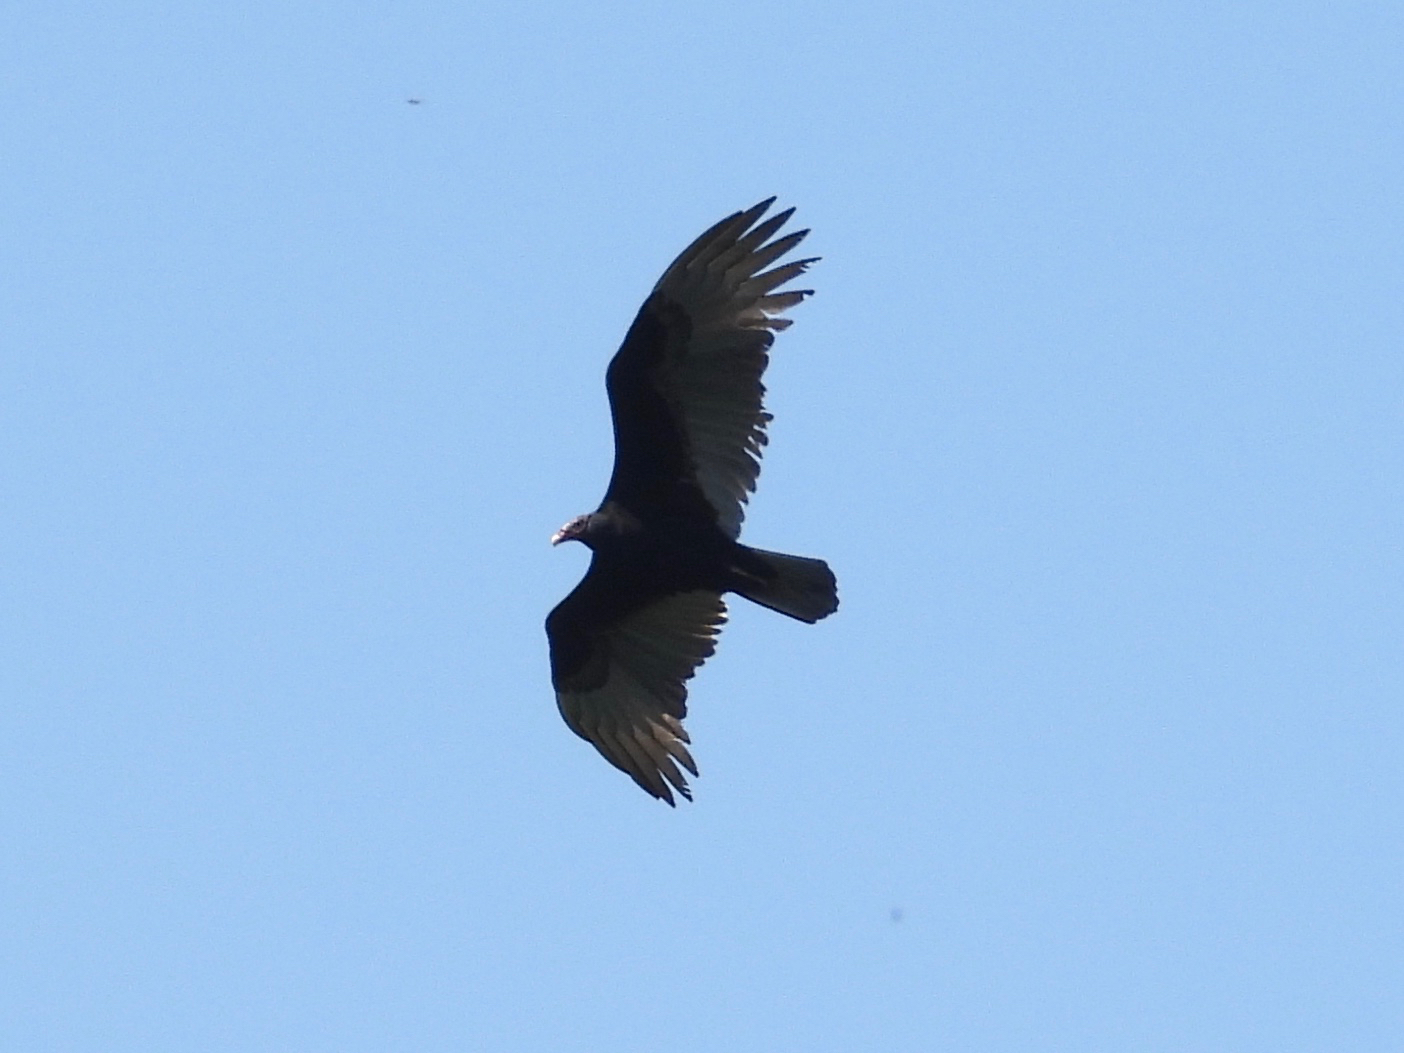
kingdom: Animalia
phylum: Chordata
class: Aves
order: Accipitriformes
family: Cathartidae
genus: Cathartes
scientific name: Cathartes aura
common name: Turkey vulture
